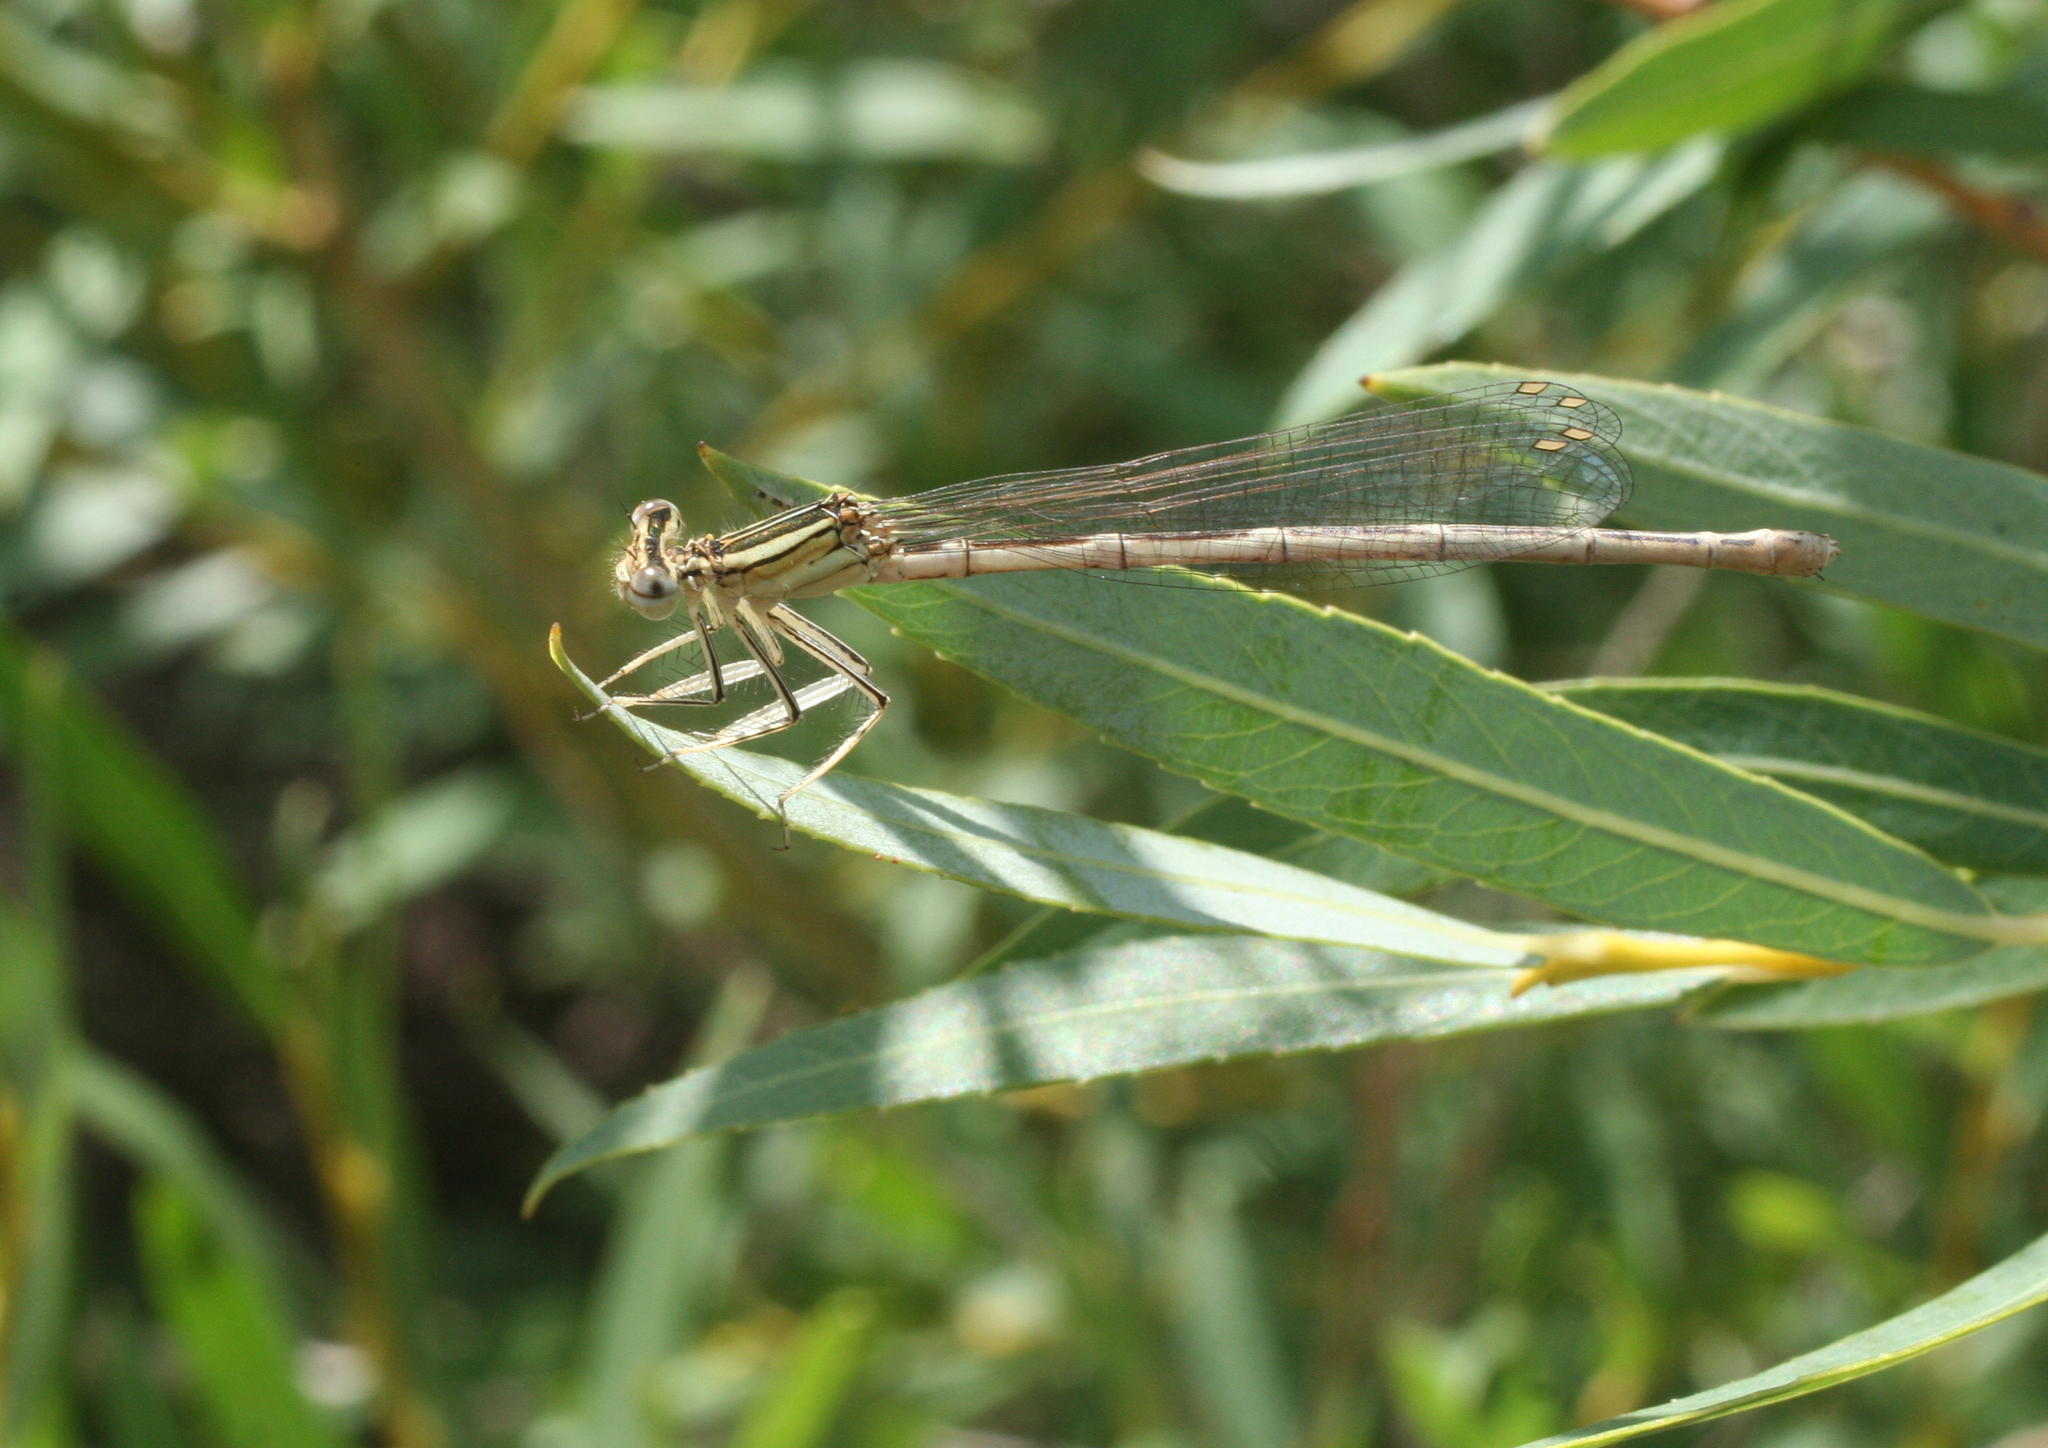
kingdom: Animalia
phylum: Arthropoda
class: Insecta
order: Odonata
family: Platycnemididae
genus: Platycnemis
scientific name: Platycnemis pennipes
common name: White-legged damselfly
